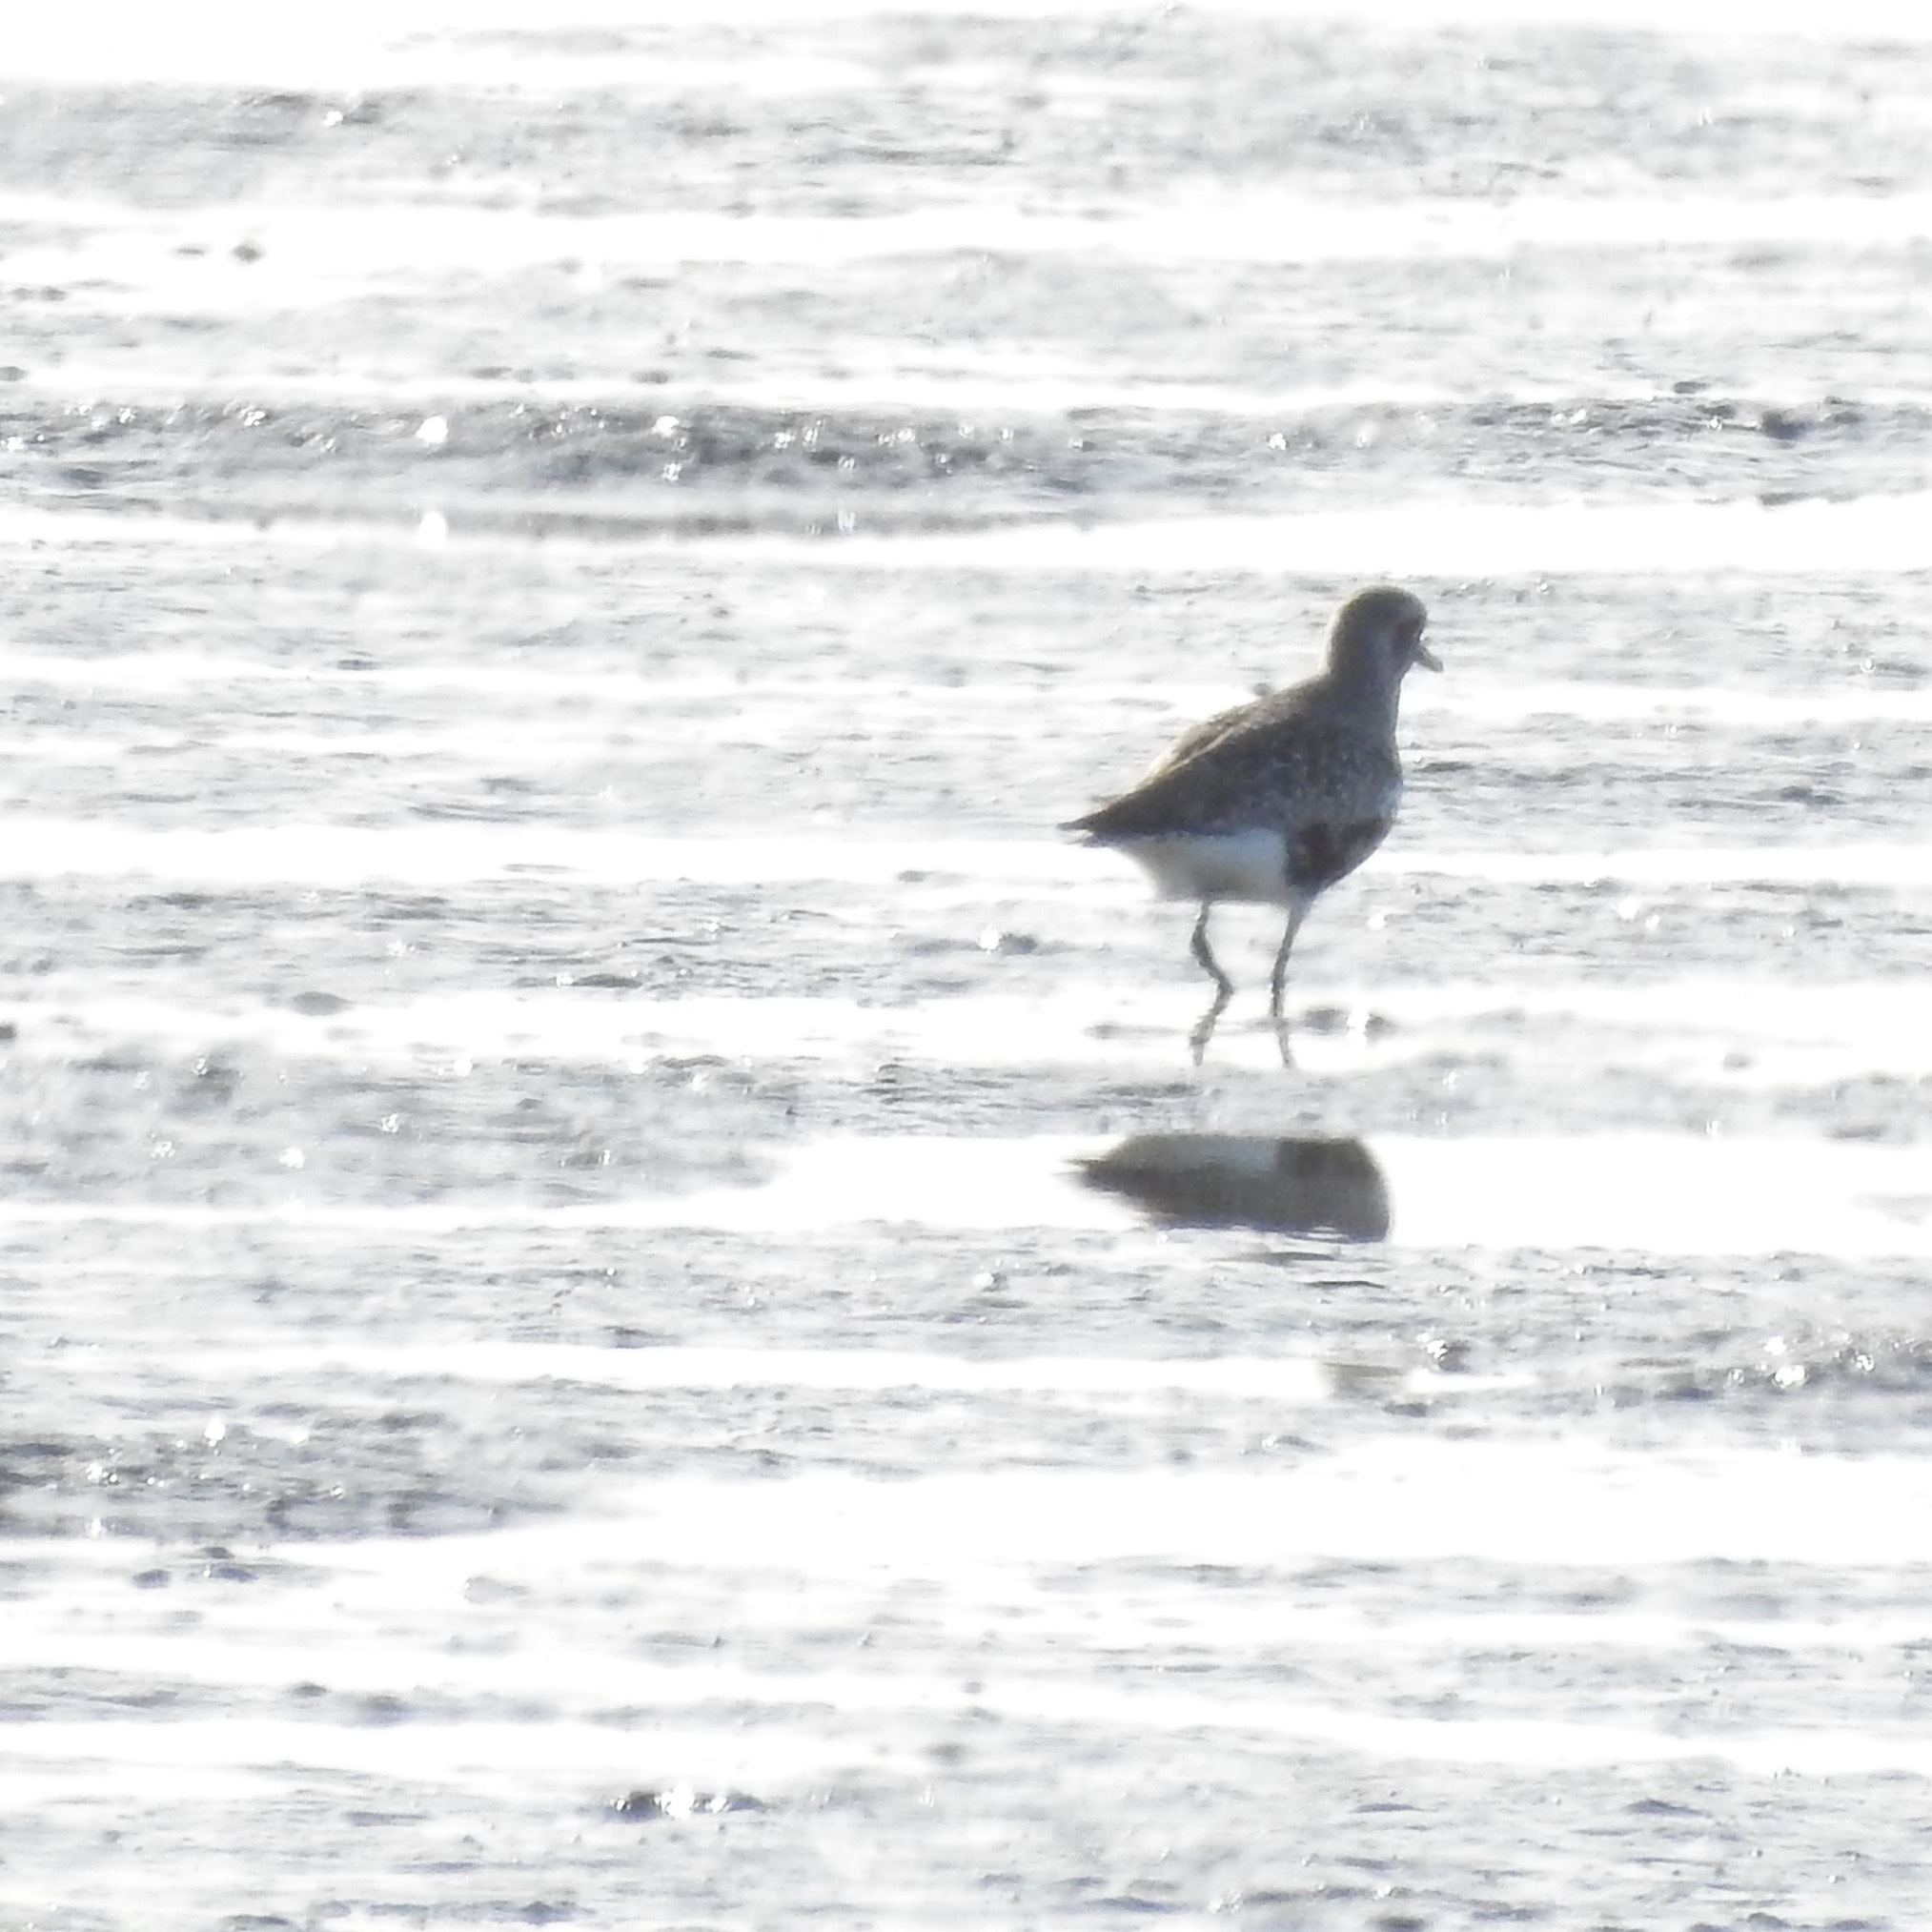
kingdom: Animalia
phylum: Chordata
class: Aves
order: Charadriiformes
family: Charadriidae
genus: Pluvialis
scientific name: Pluvialis squatarola
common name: Grey plover
